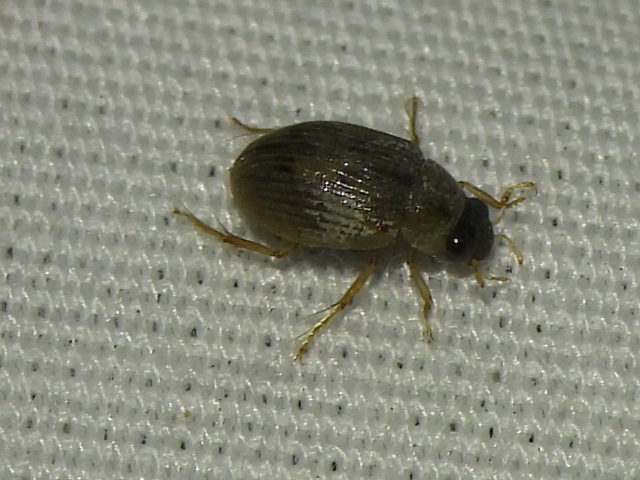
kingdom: Animalia
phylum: Arthropoda
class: Insecta
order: Coleoptera
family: Hydrophilidae
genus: Berosus
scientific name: Berosus
